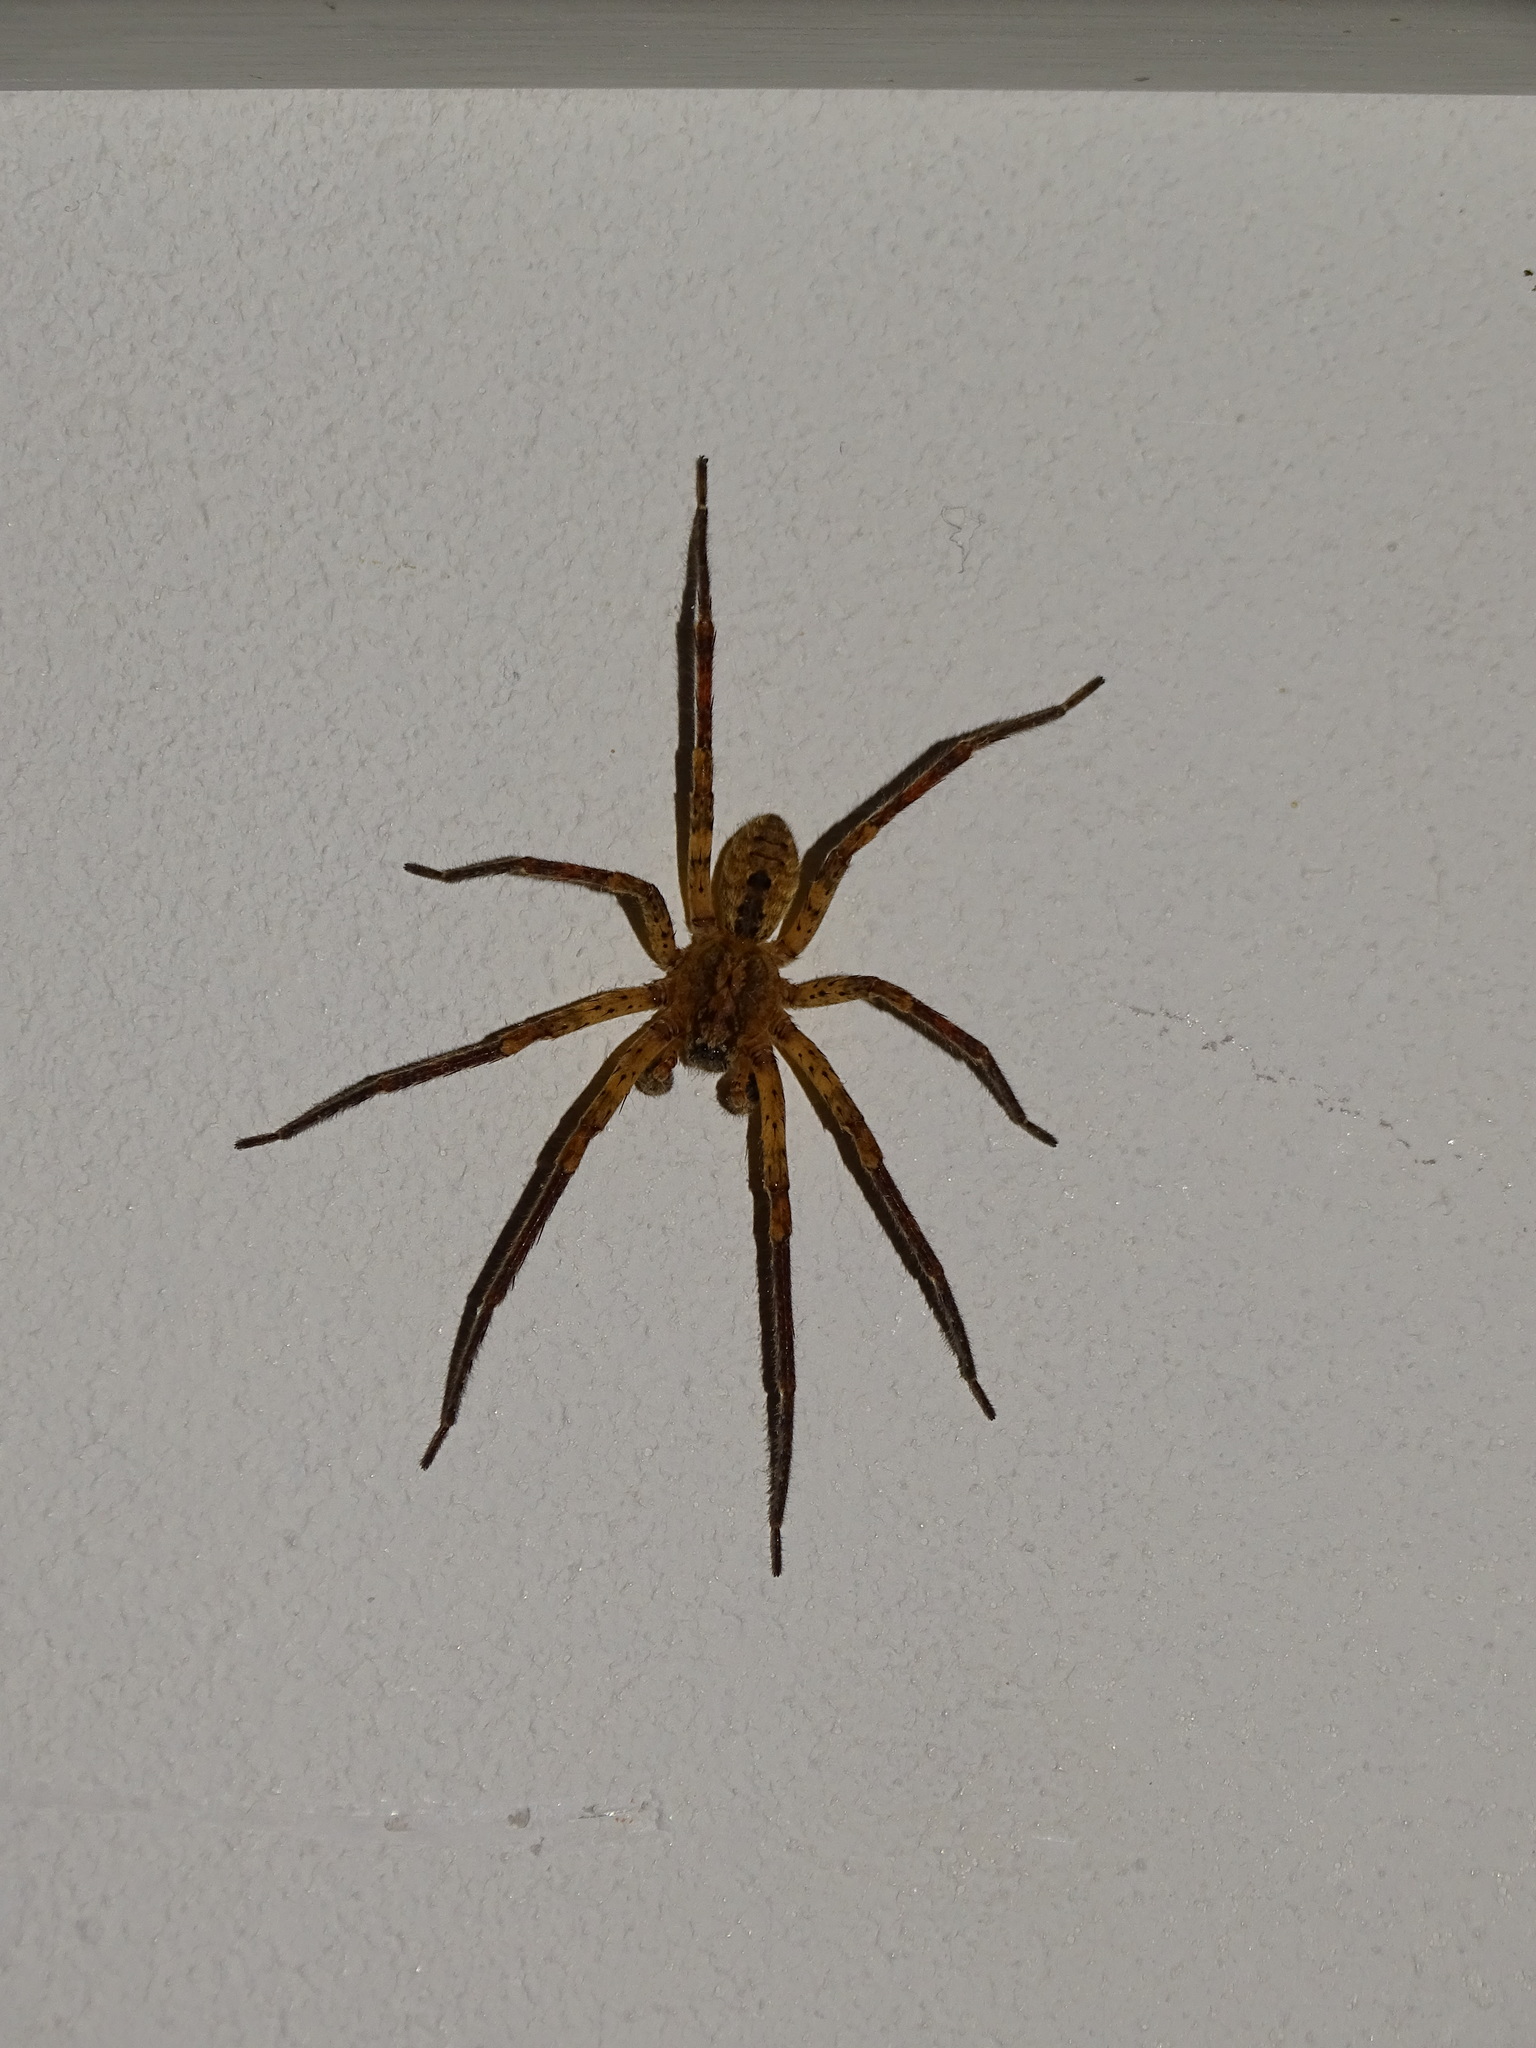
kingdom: Animalia
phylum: Arthropoda
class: Arachnida
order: Araneae
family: Zoropsidae
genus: Zoropsis
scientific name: Zoropsis spinimana
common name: Zoropsid spider
